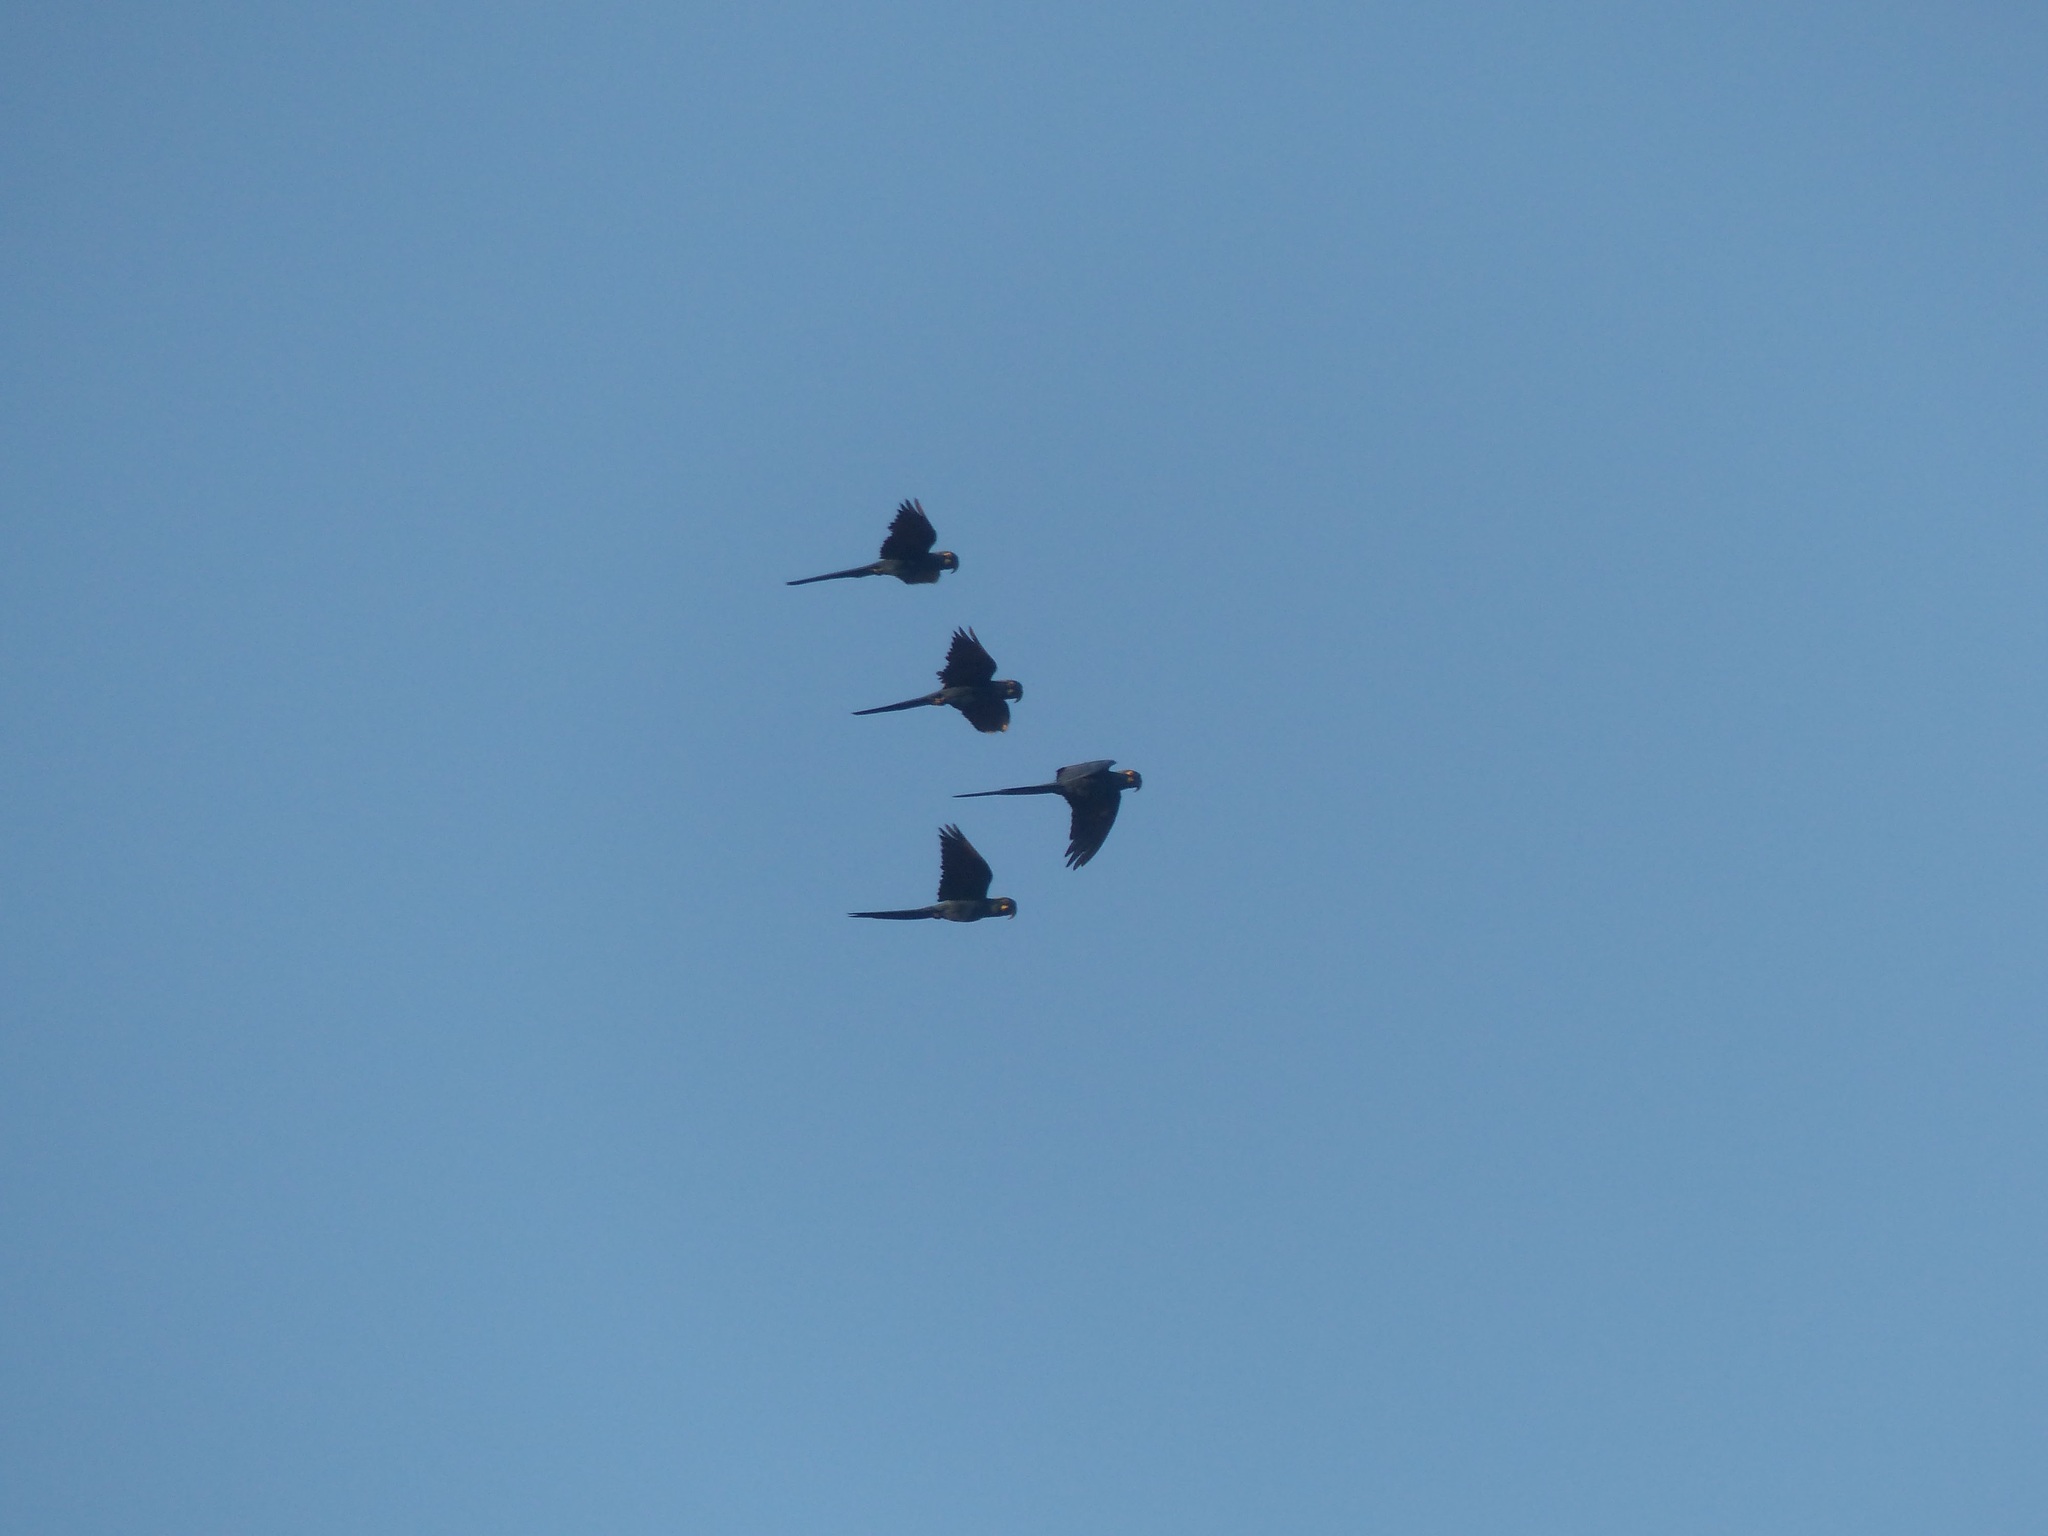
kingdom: Animalia
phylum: Chordata
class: Aves
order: Psittaciformes
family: Psittacidae
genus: Anodorhynchus
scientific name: Anodorhynchus leari
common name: Lear's macaw
